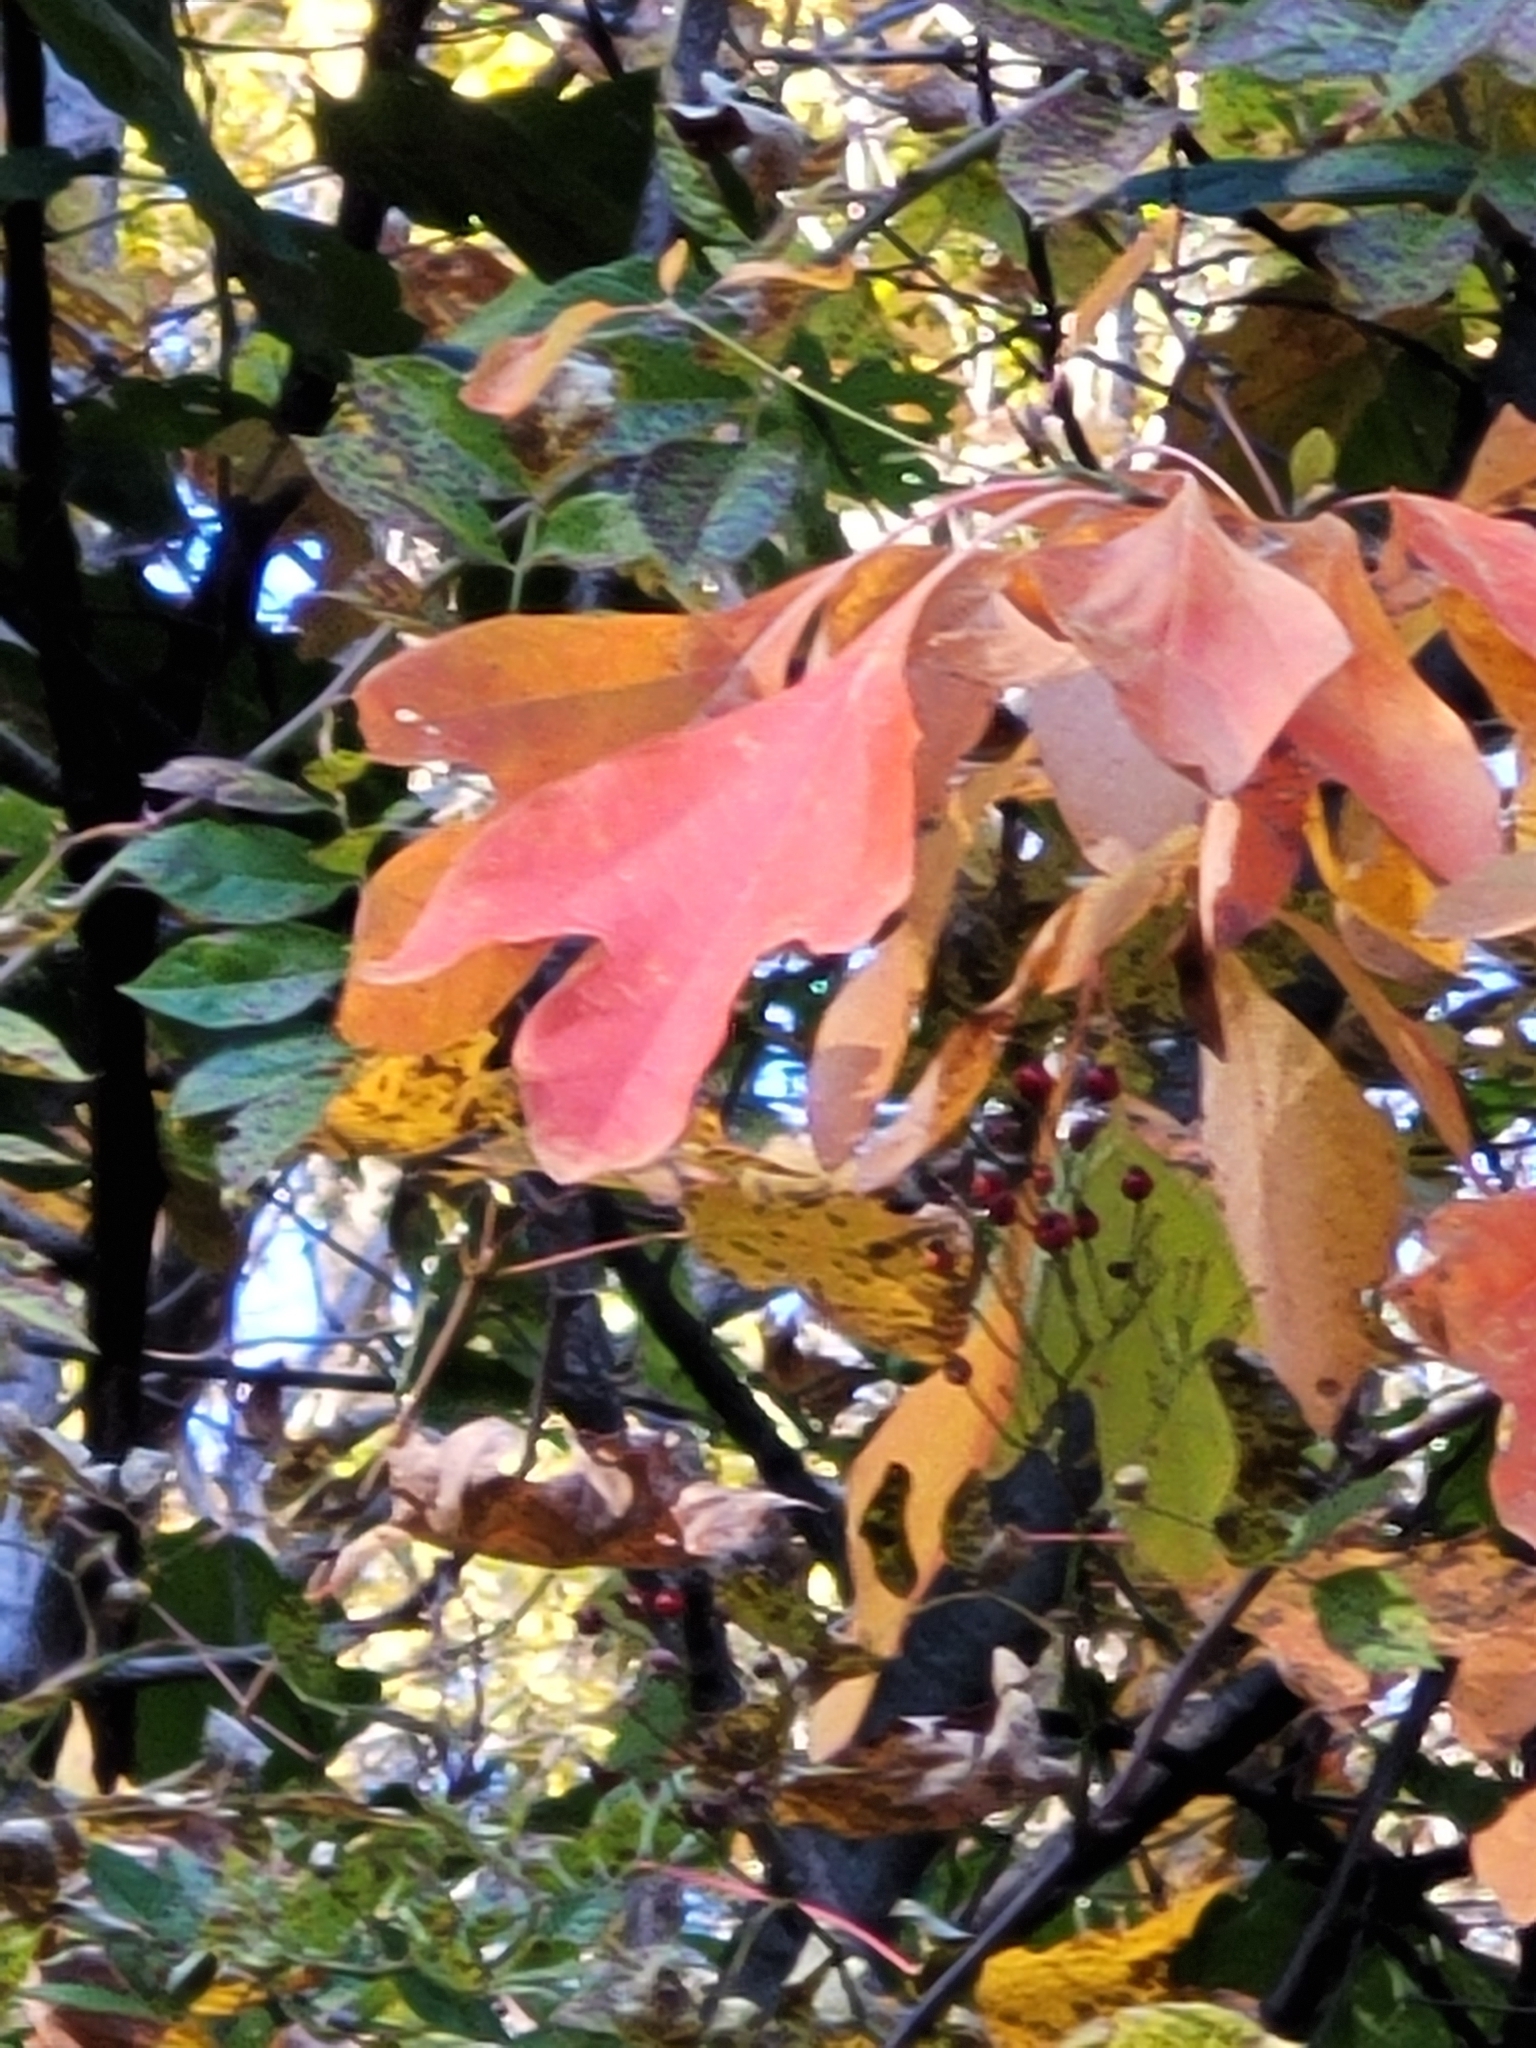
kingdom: Plantae
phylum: Tracheophyta
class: Magnoliopsida
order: Laurales
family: Lauraceae
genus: Sassafras
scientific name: Sassafras albidum
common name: Sassafras
